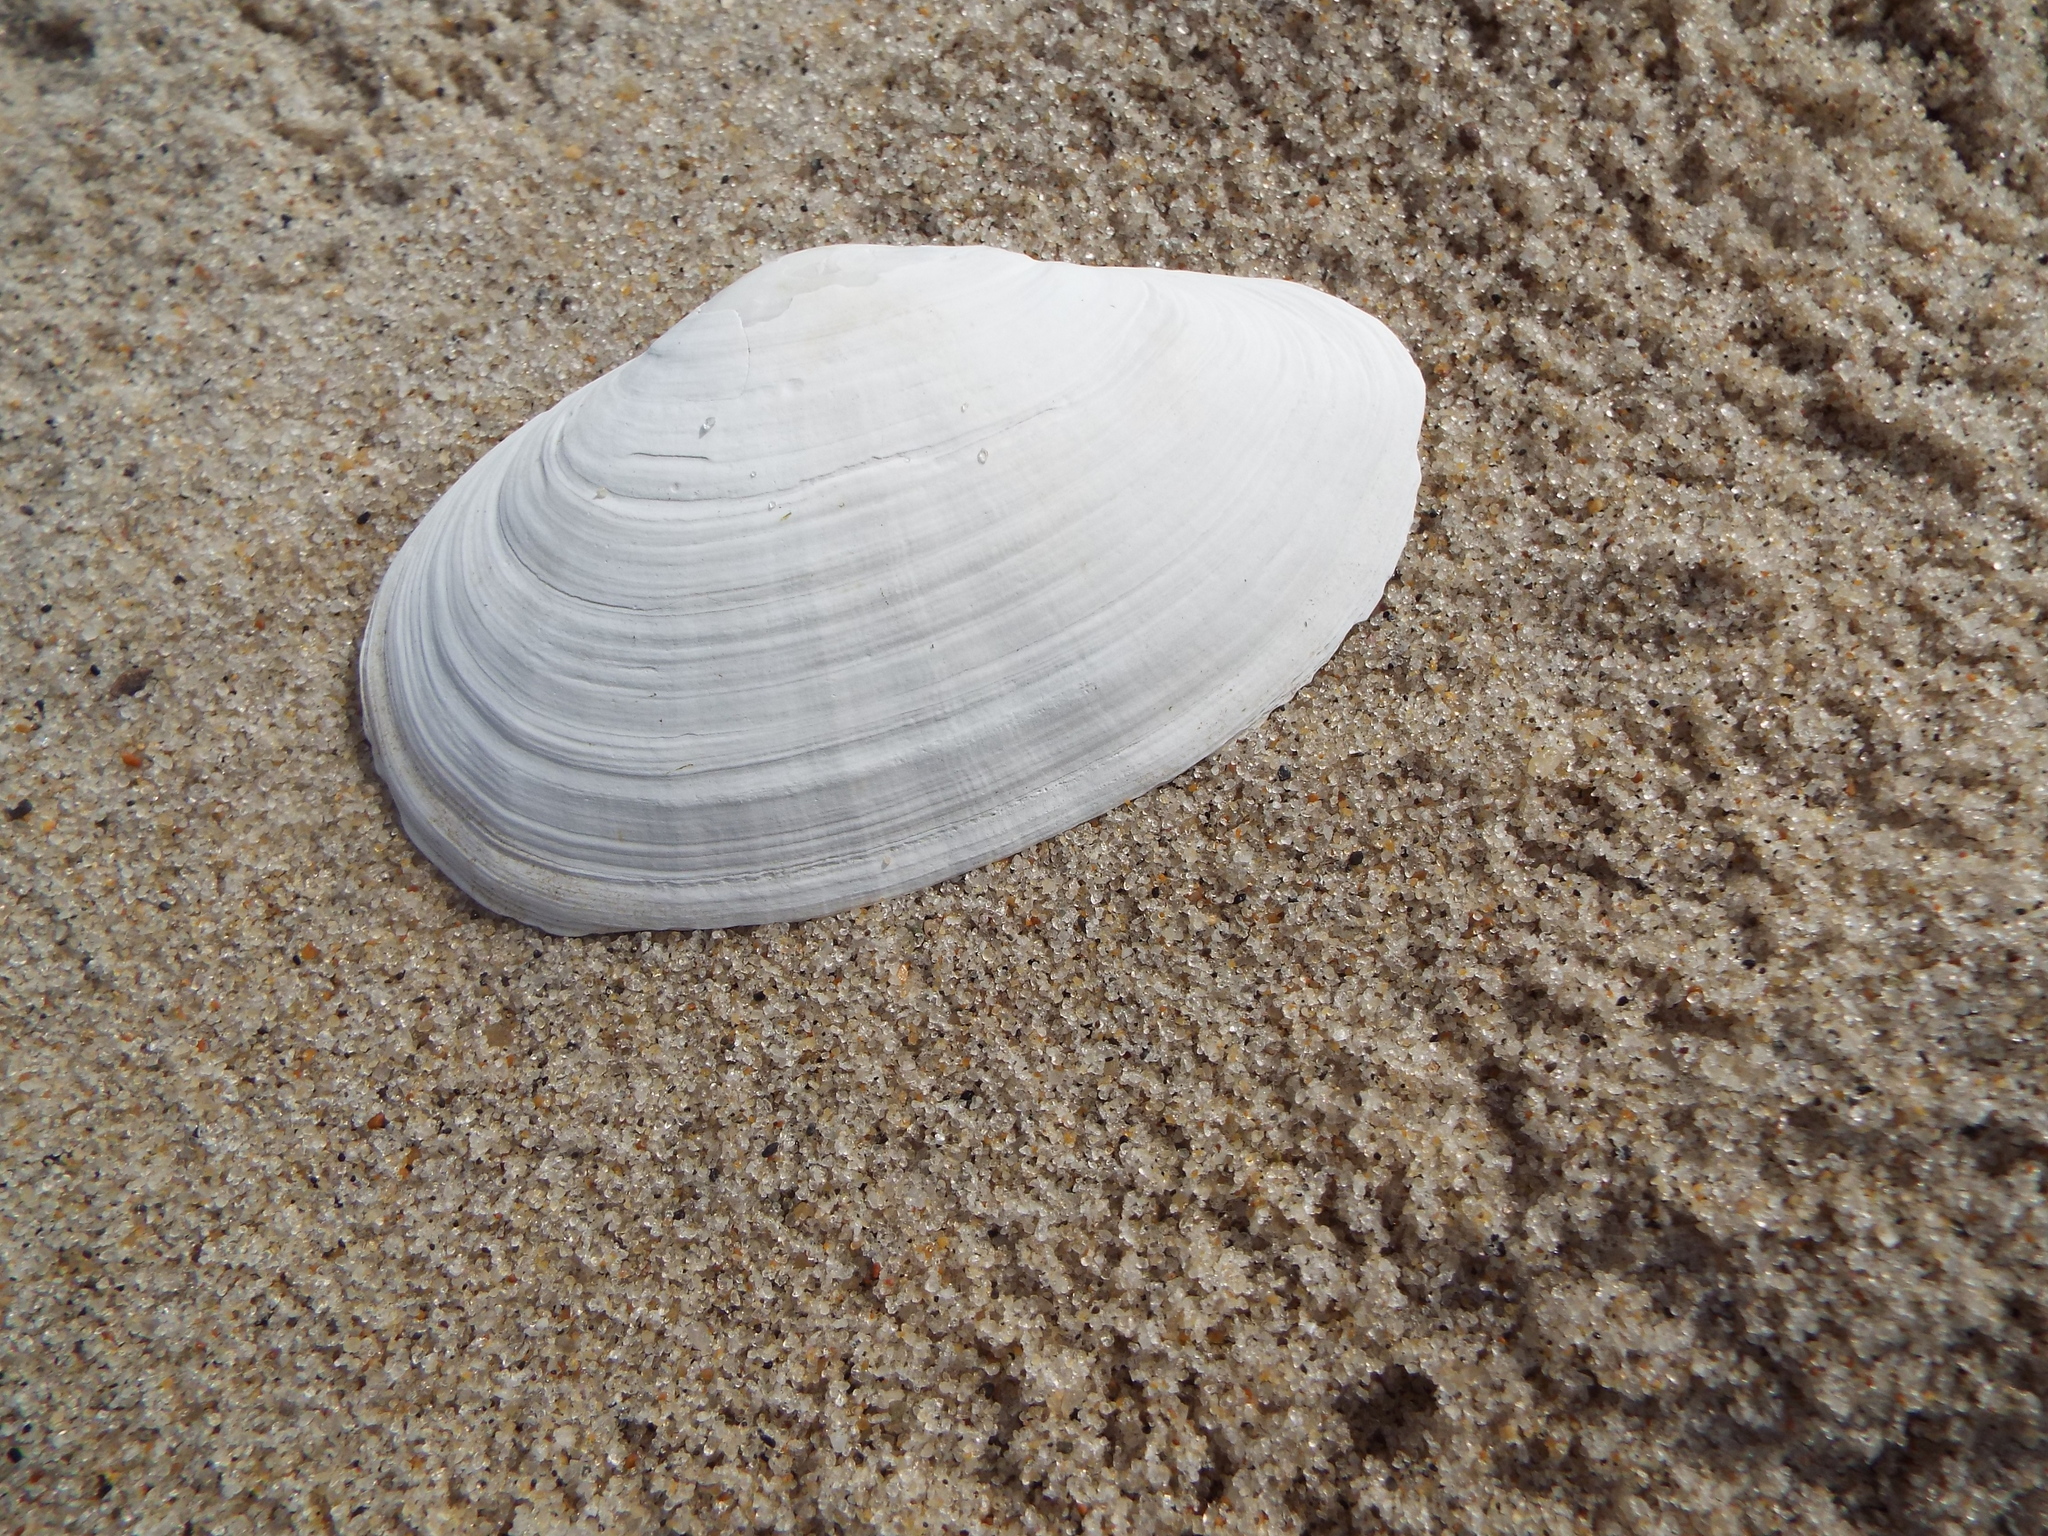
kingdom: Animalia
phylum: Mollusca
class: Bivalvia
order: Myida
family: Myidae
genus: Mya
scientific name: Mya arenaria
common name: Soft-shelled clam
